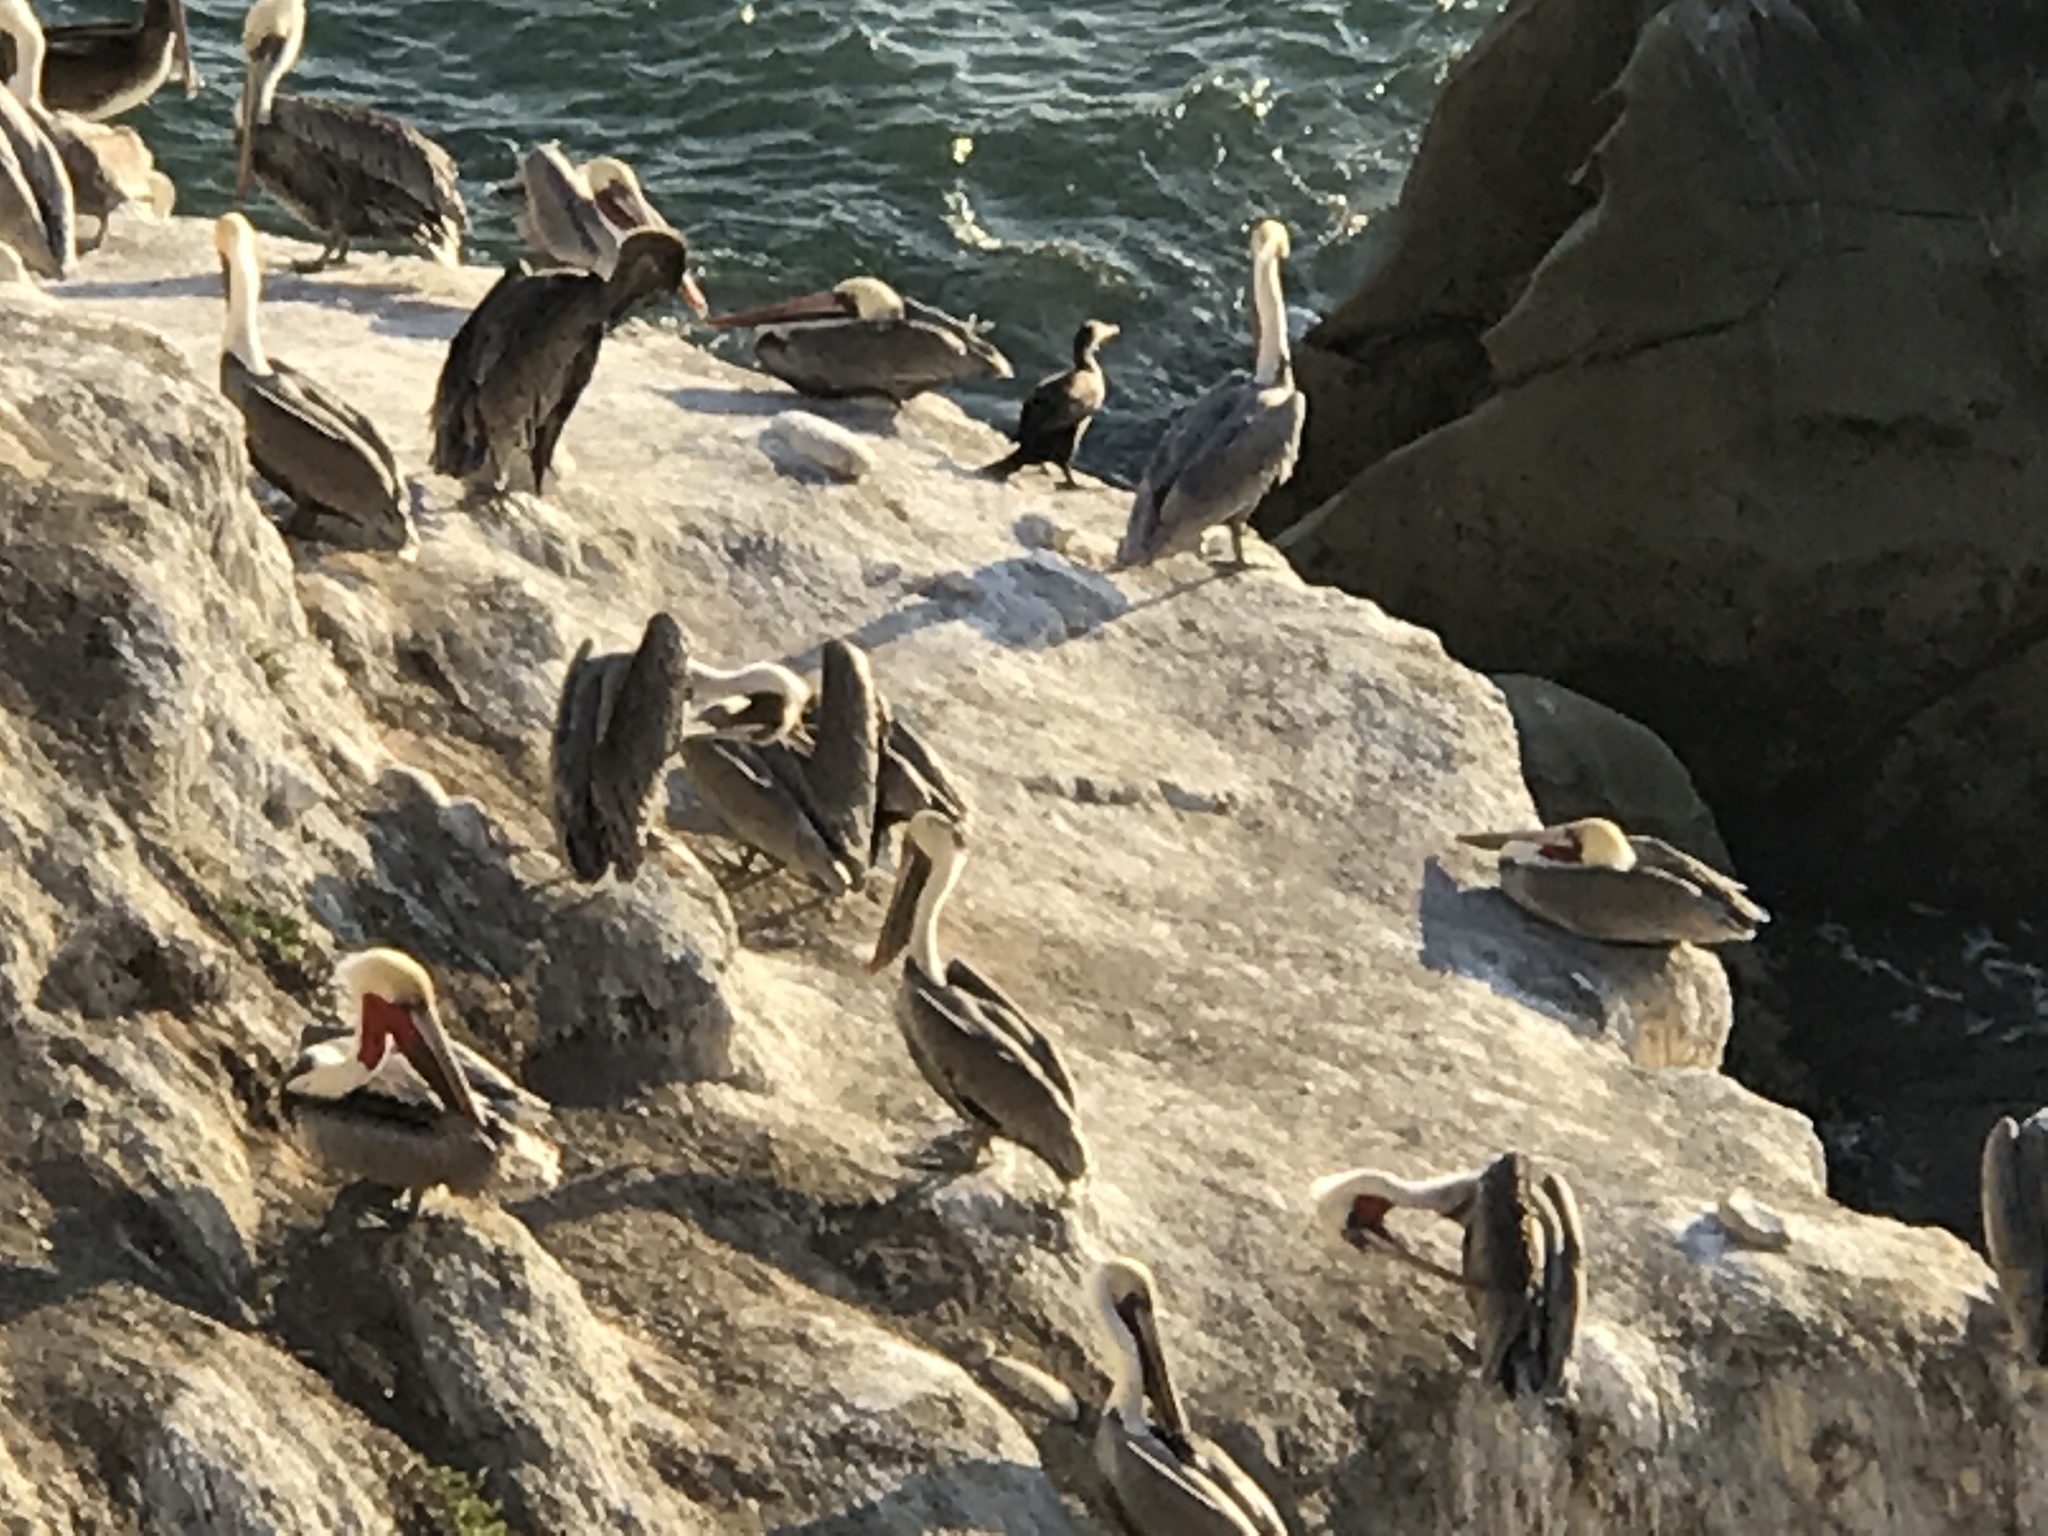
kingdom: Animalia
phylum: Chordata
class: Aves
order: Pelecaniformes
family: Pelecanidae
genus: Pelecanus
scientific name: Pelecanus occidentalis
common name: Brown pelican
